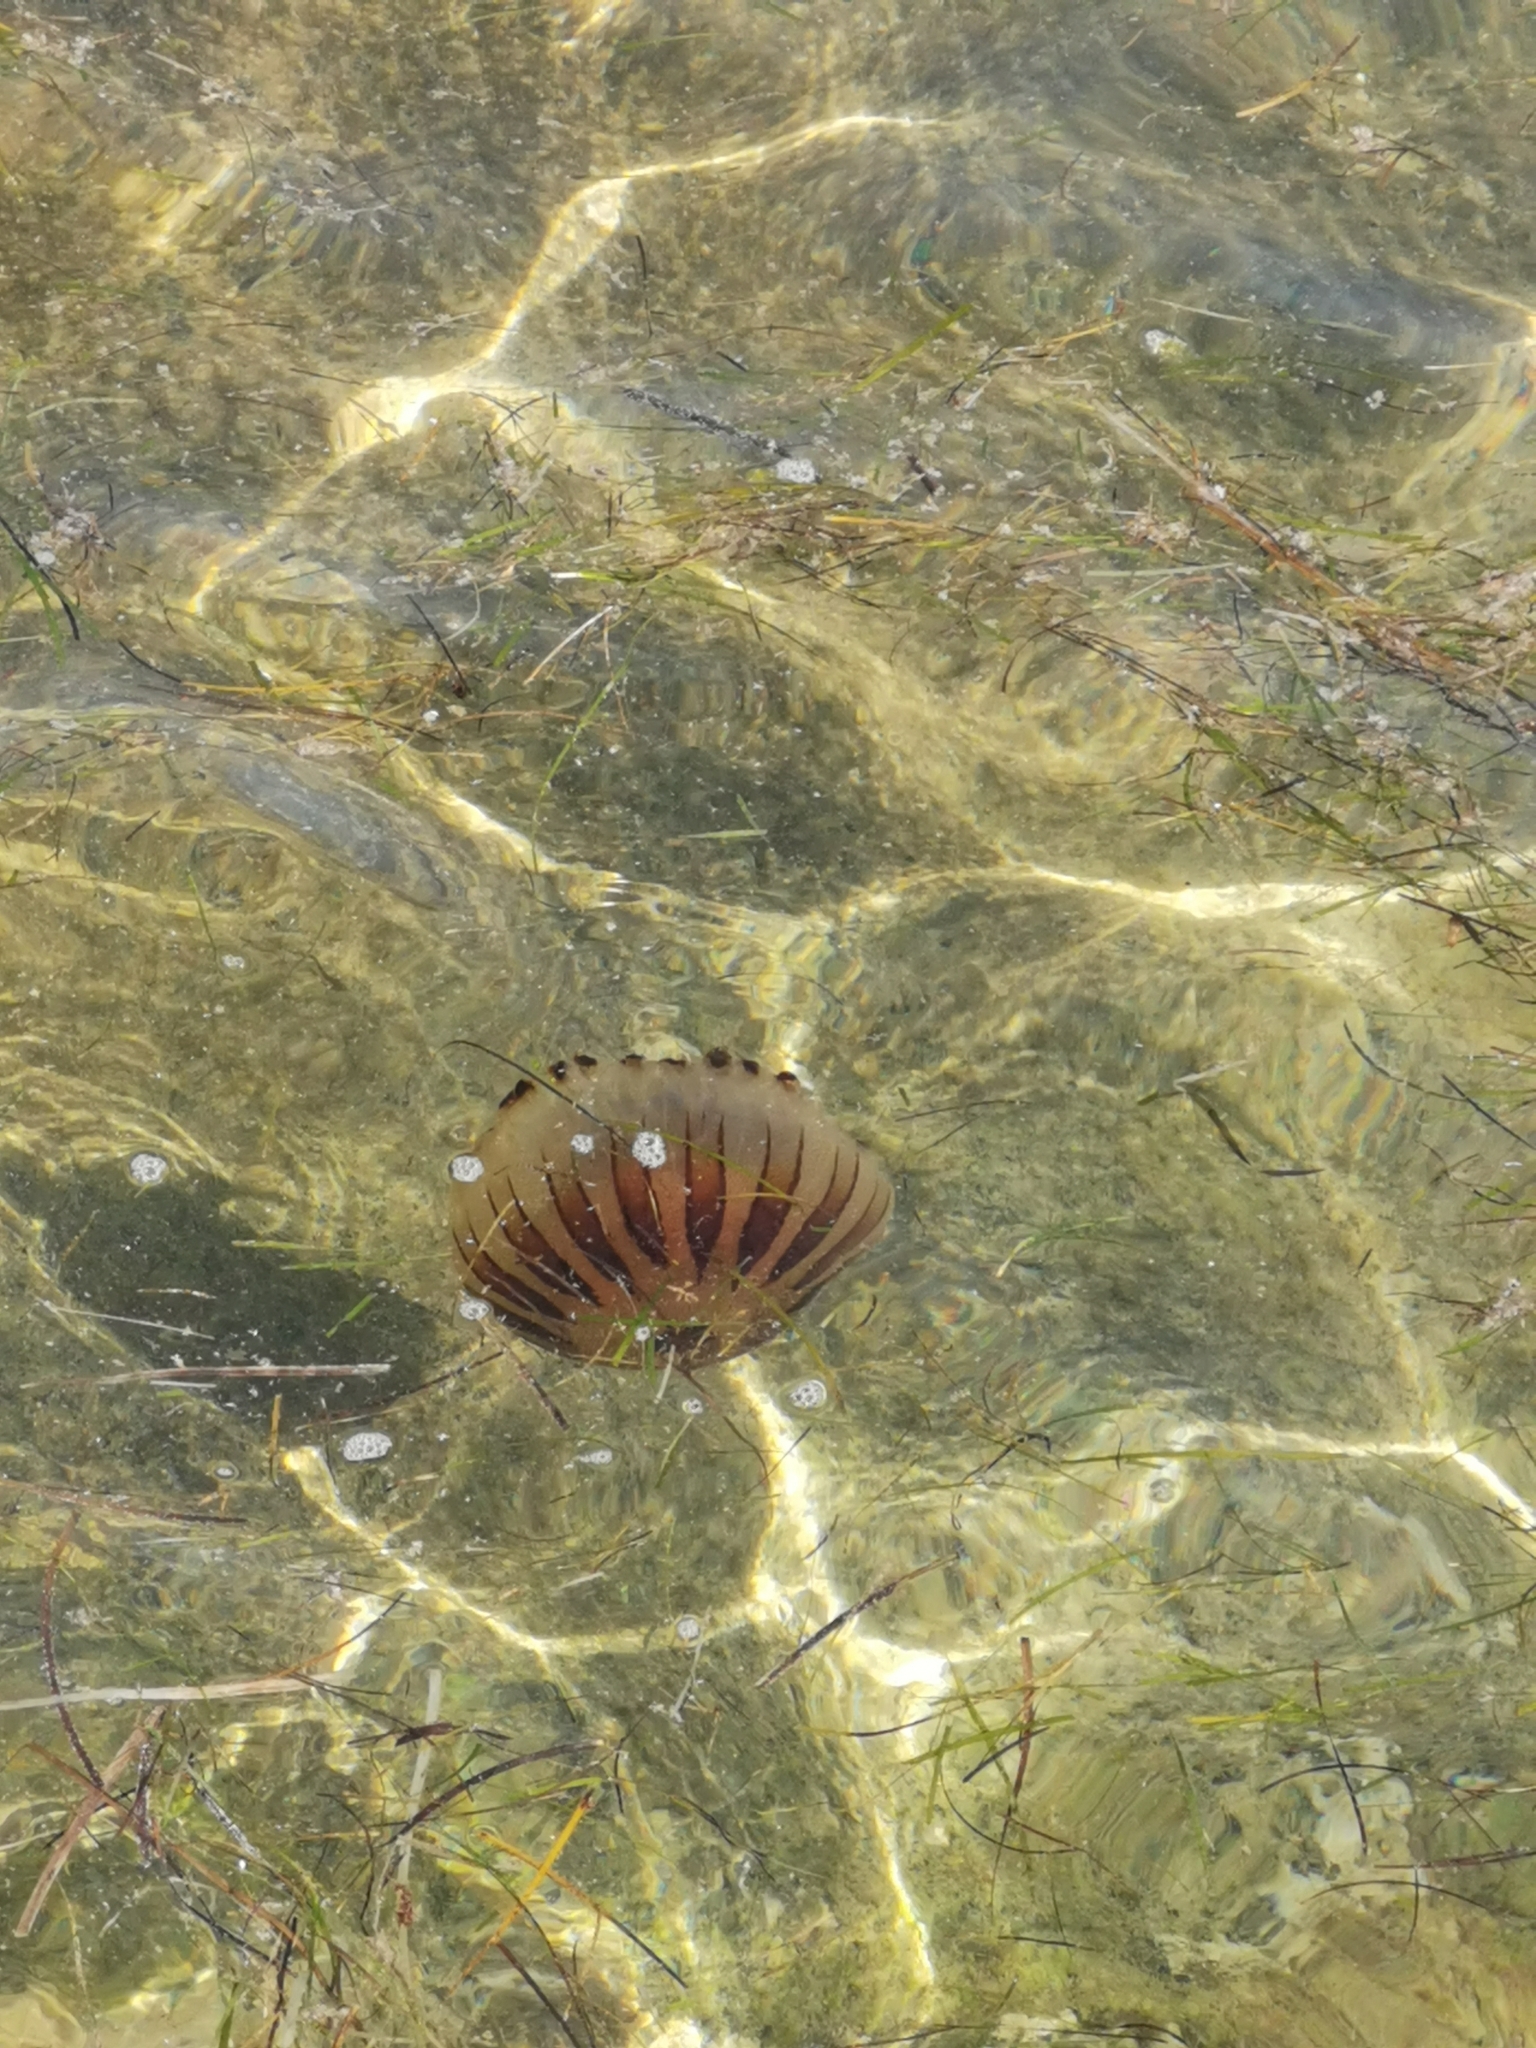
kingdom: Animalia
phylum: Cnidaria
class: Scyphozoa
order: Semaeostomeae
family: Pelagiidae
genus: Chrysaora
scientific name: Chrysaora hysoscella
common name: Compass jellyfish
